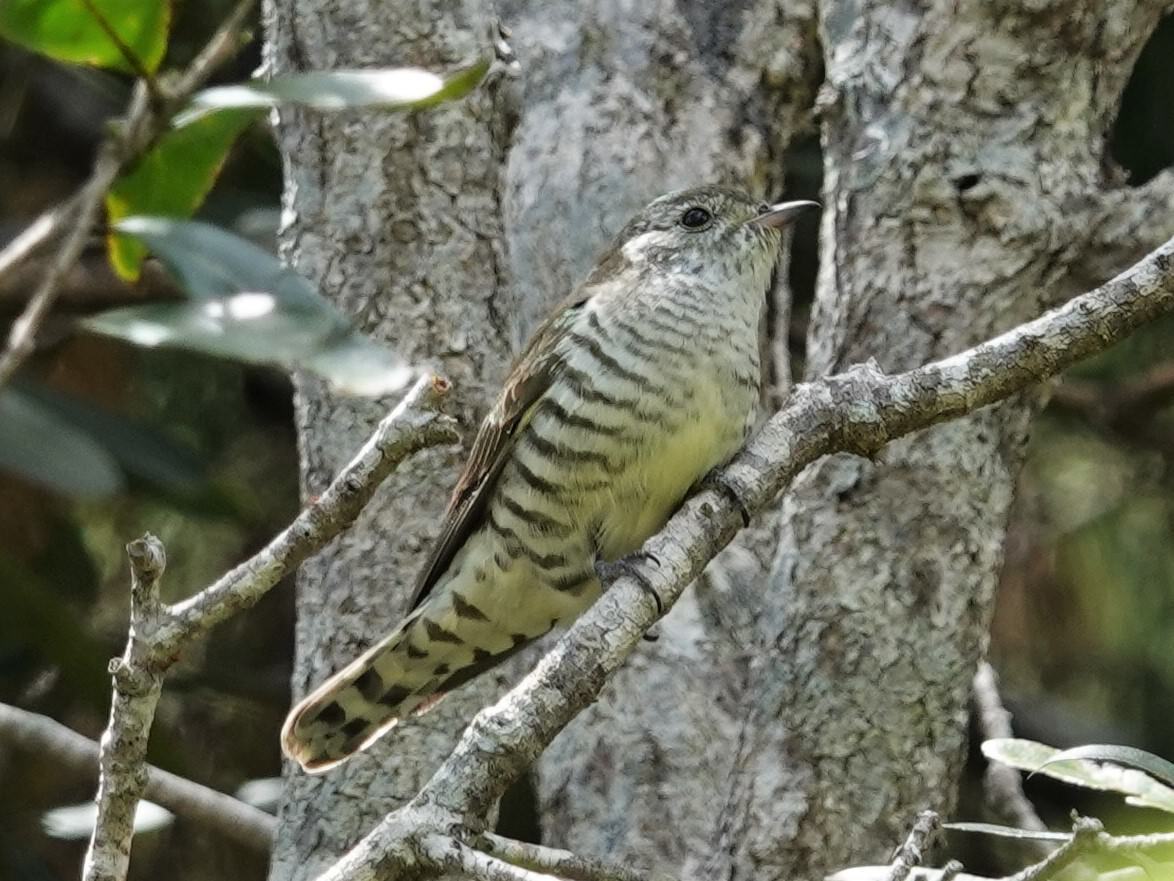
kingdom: Animalia
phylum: Chordata
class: Aves
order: Cuculiformes
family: Cuculidae
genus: Chrysococcyx
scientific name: Chrysococcyx lucidus
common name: Shining bronze cuckoo
